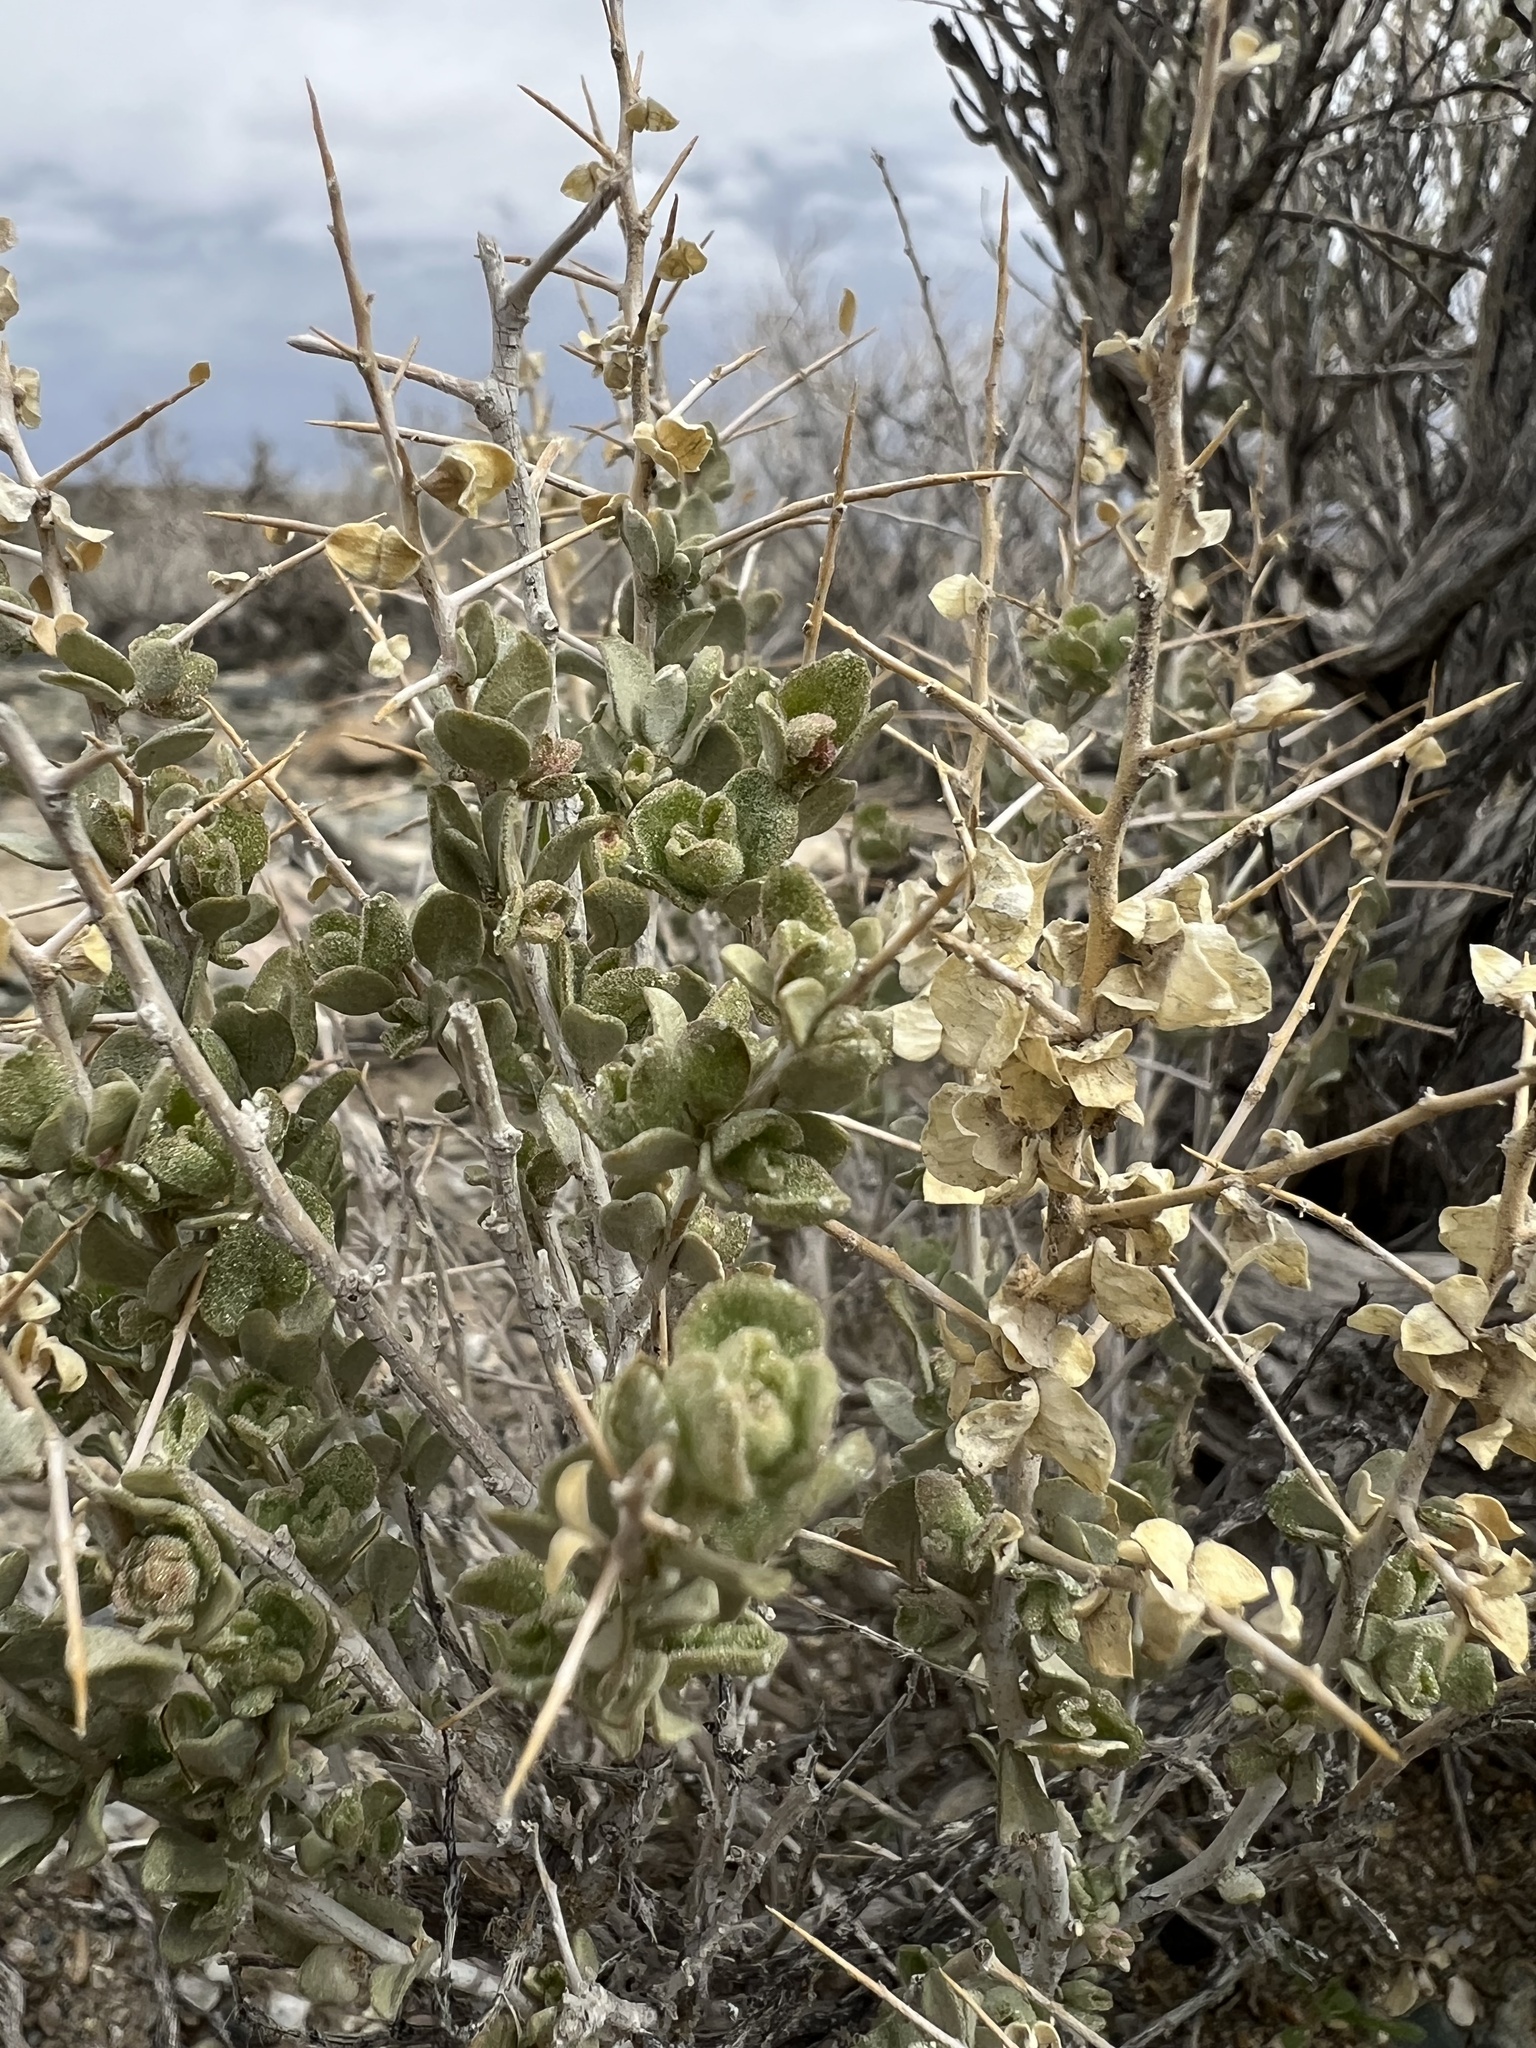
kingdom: Plantae
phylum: Tracheophyta
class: Magnoliopsida
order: Caryophyllales
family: Amaranthaceae
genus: Atriplex
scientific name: Atriplex confertifolia
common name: Shadscale
